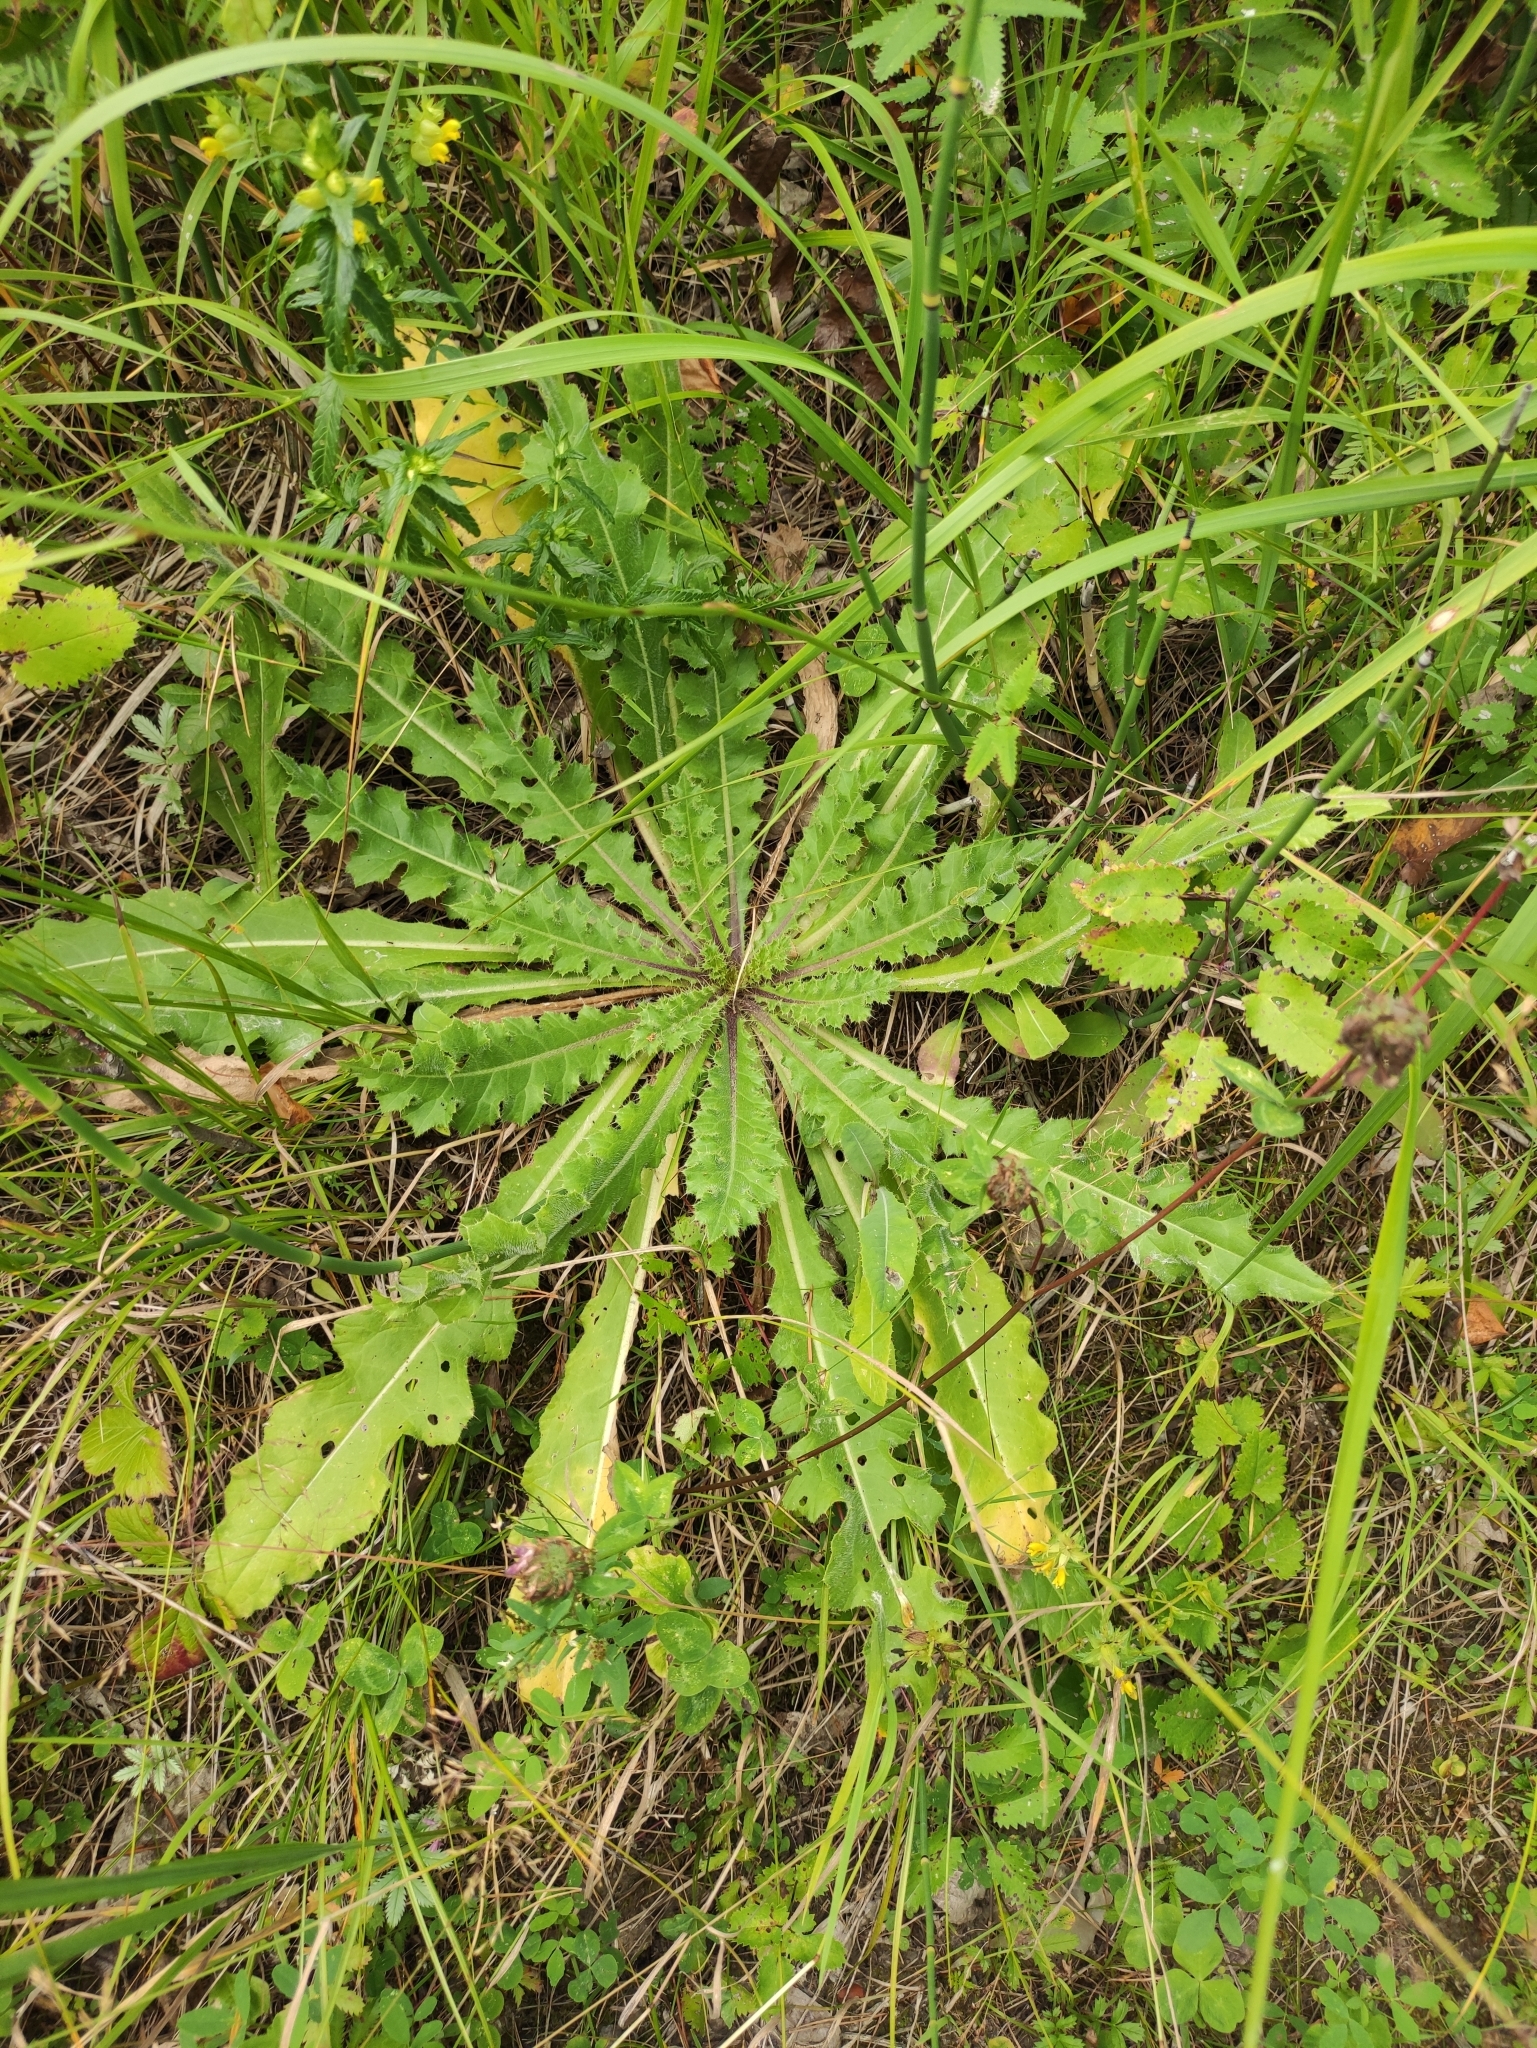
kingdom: Plantae
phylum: Tracheophyta
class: Magnoliopsida
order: Asterales
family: Asteraceae
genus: Cirsium
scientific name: Cirsium esculentum
